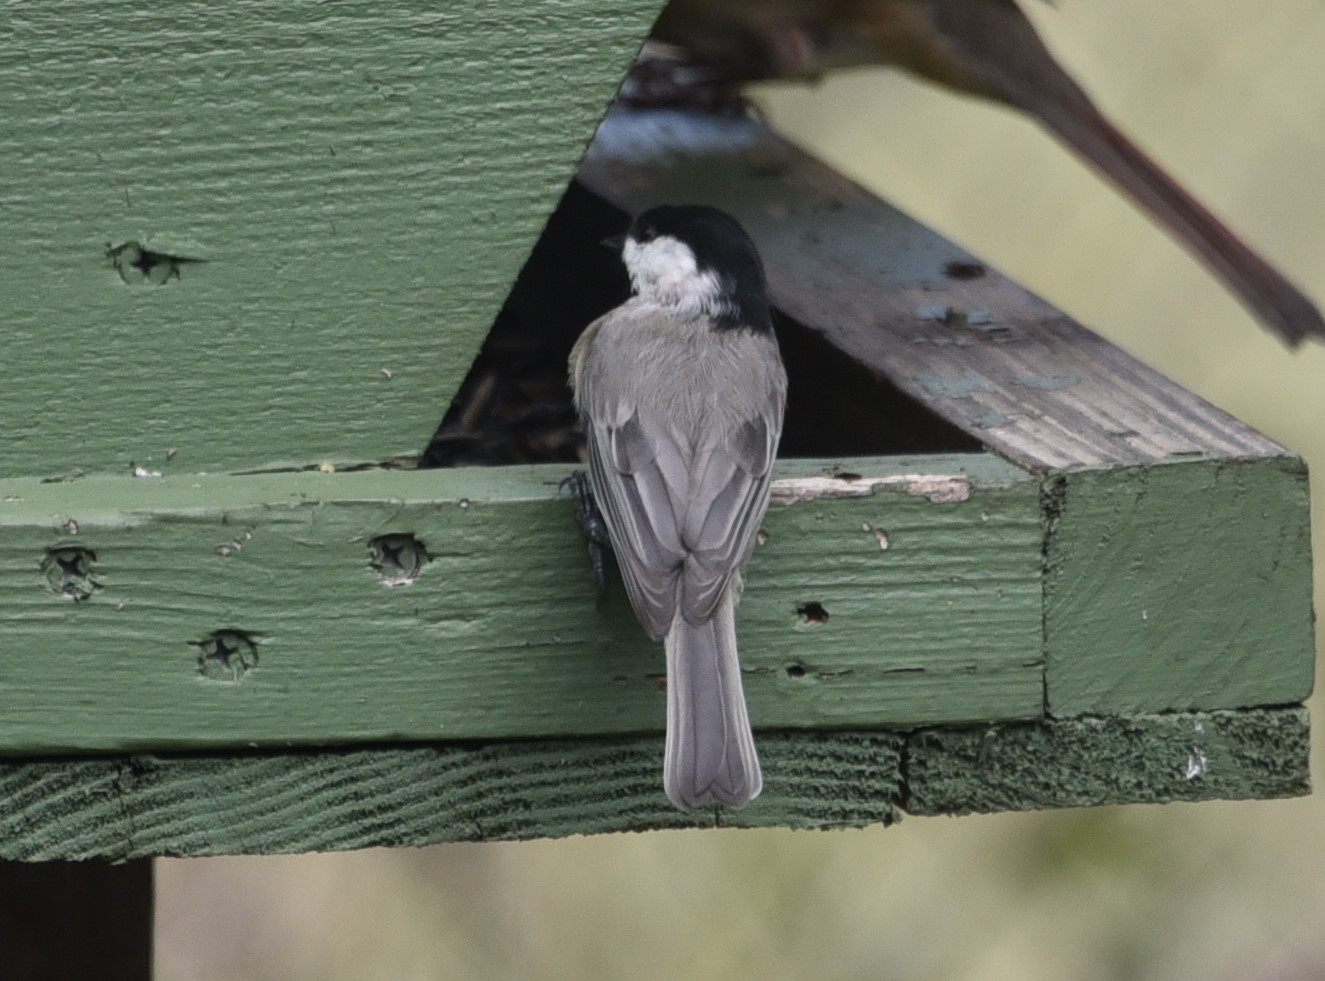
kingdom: Animalia
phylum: Chordata
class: Aves
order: Passeriformes
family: Paridae
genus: Poecile
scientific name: Poecile carolinensis
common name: Carolina chickadee
